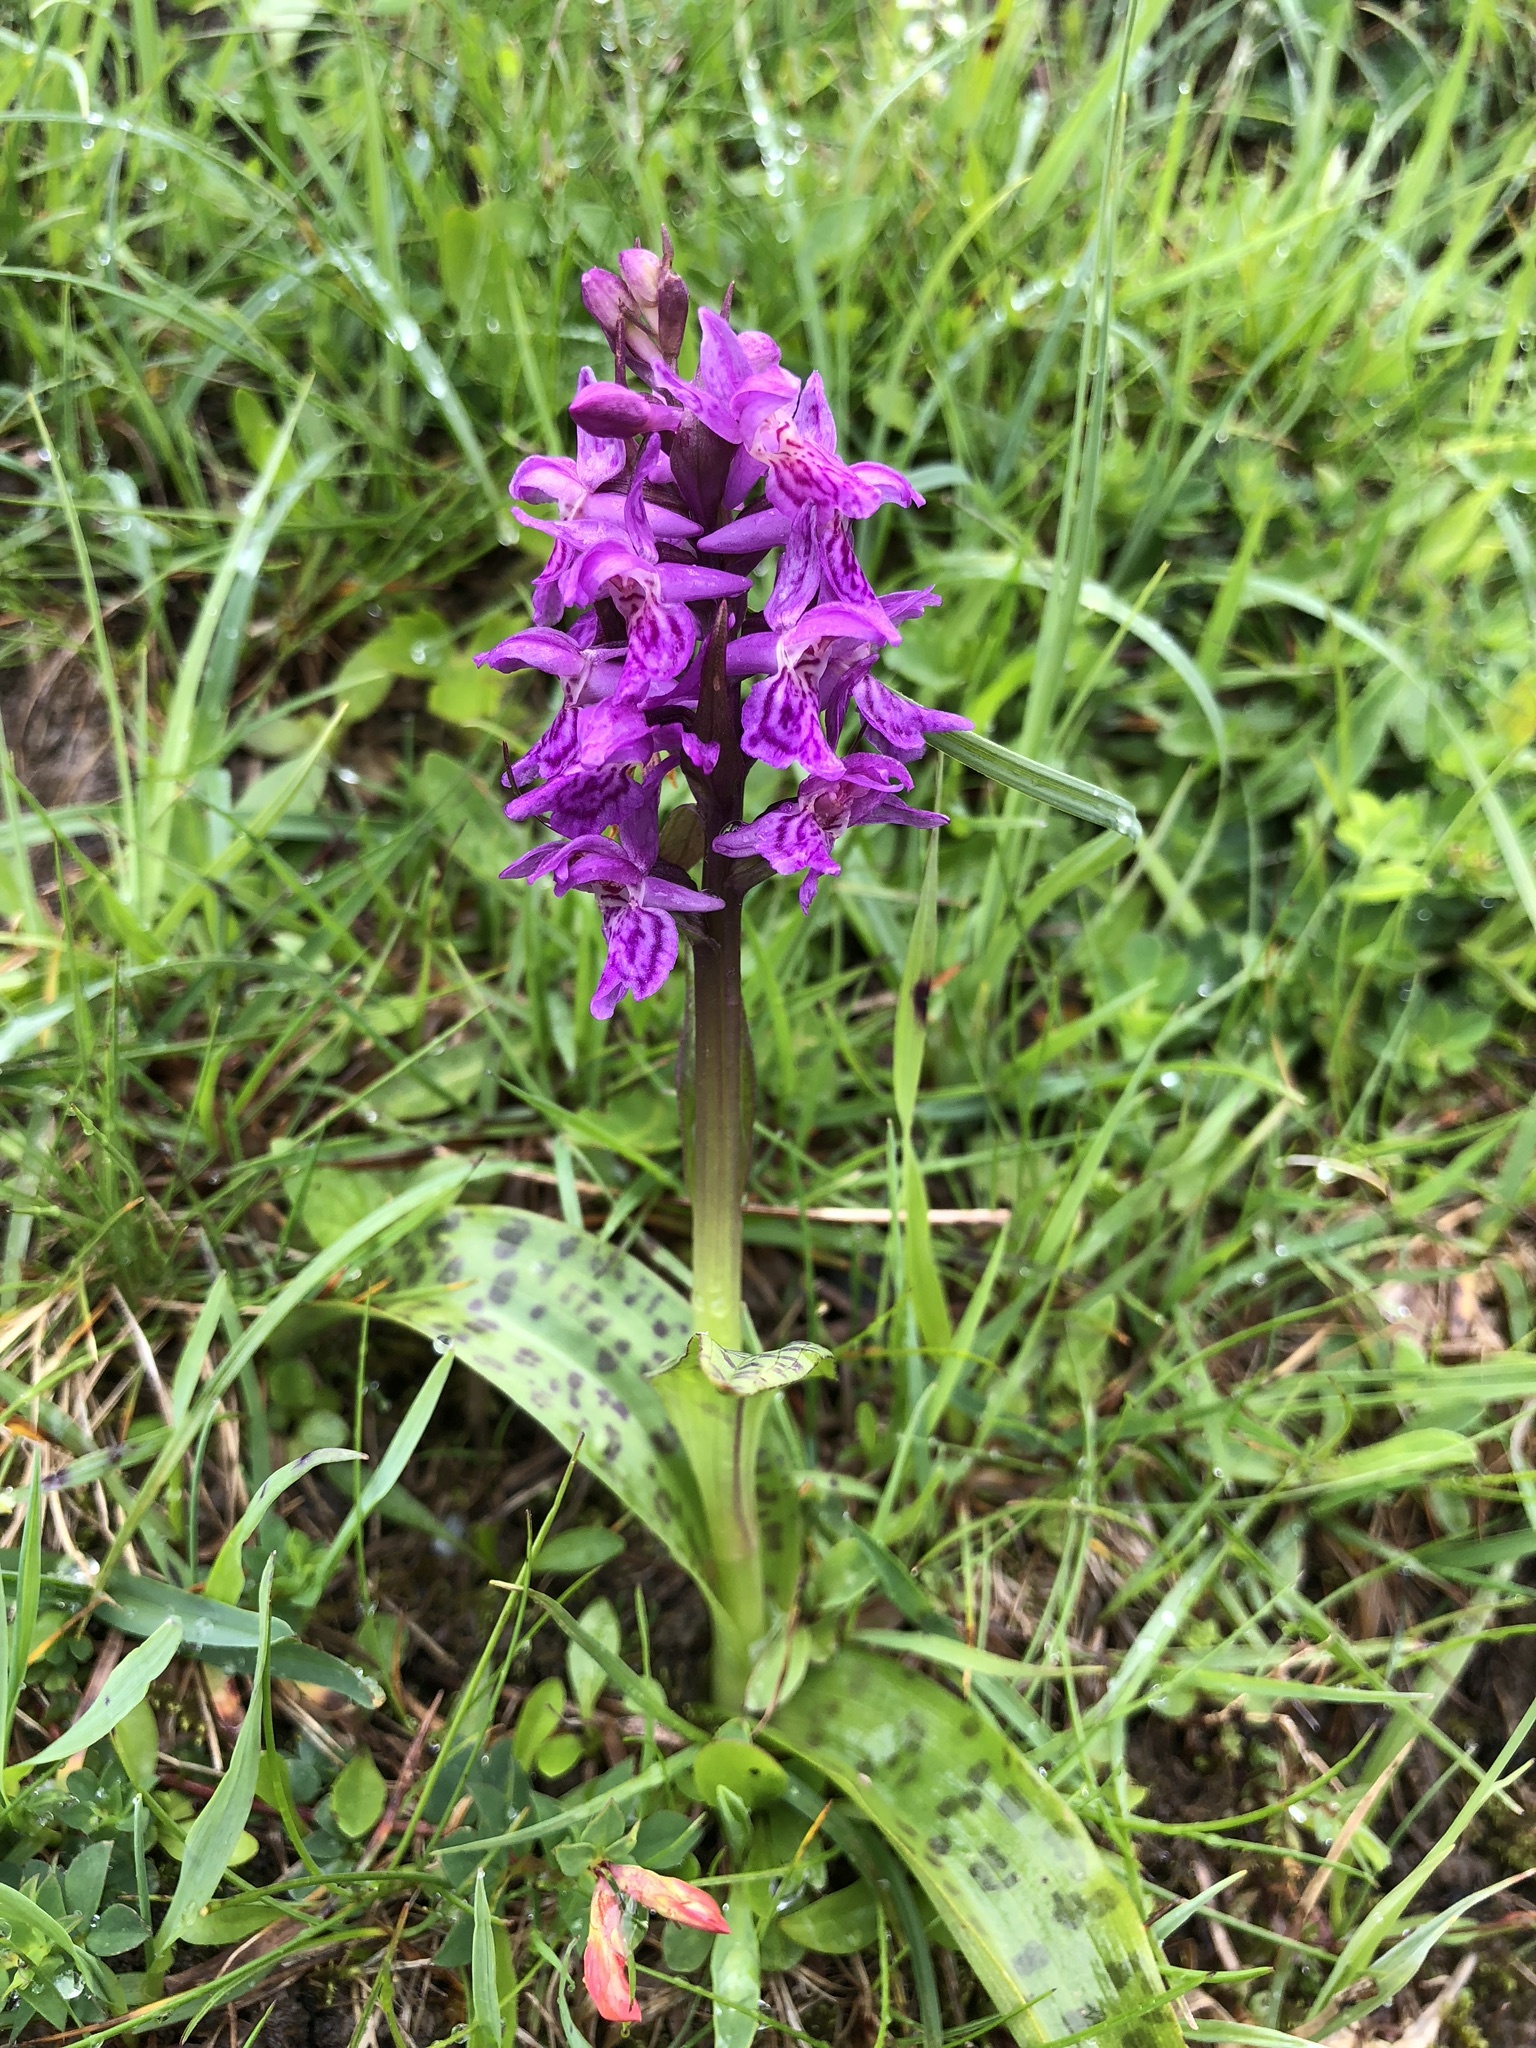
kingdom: Plantae
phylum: Tracheophyta
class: Liliopsida
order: Asparagales
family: Orchidaceae
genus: Dactylorhiza
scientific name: Dactylorhiza majalis
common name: Marsh orchid
